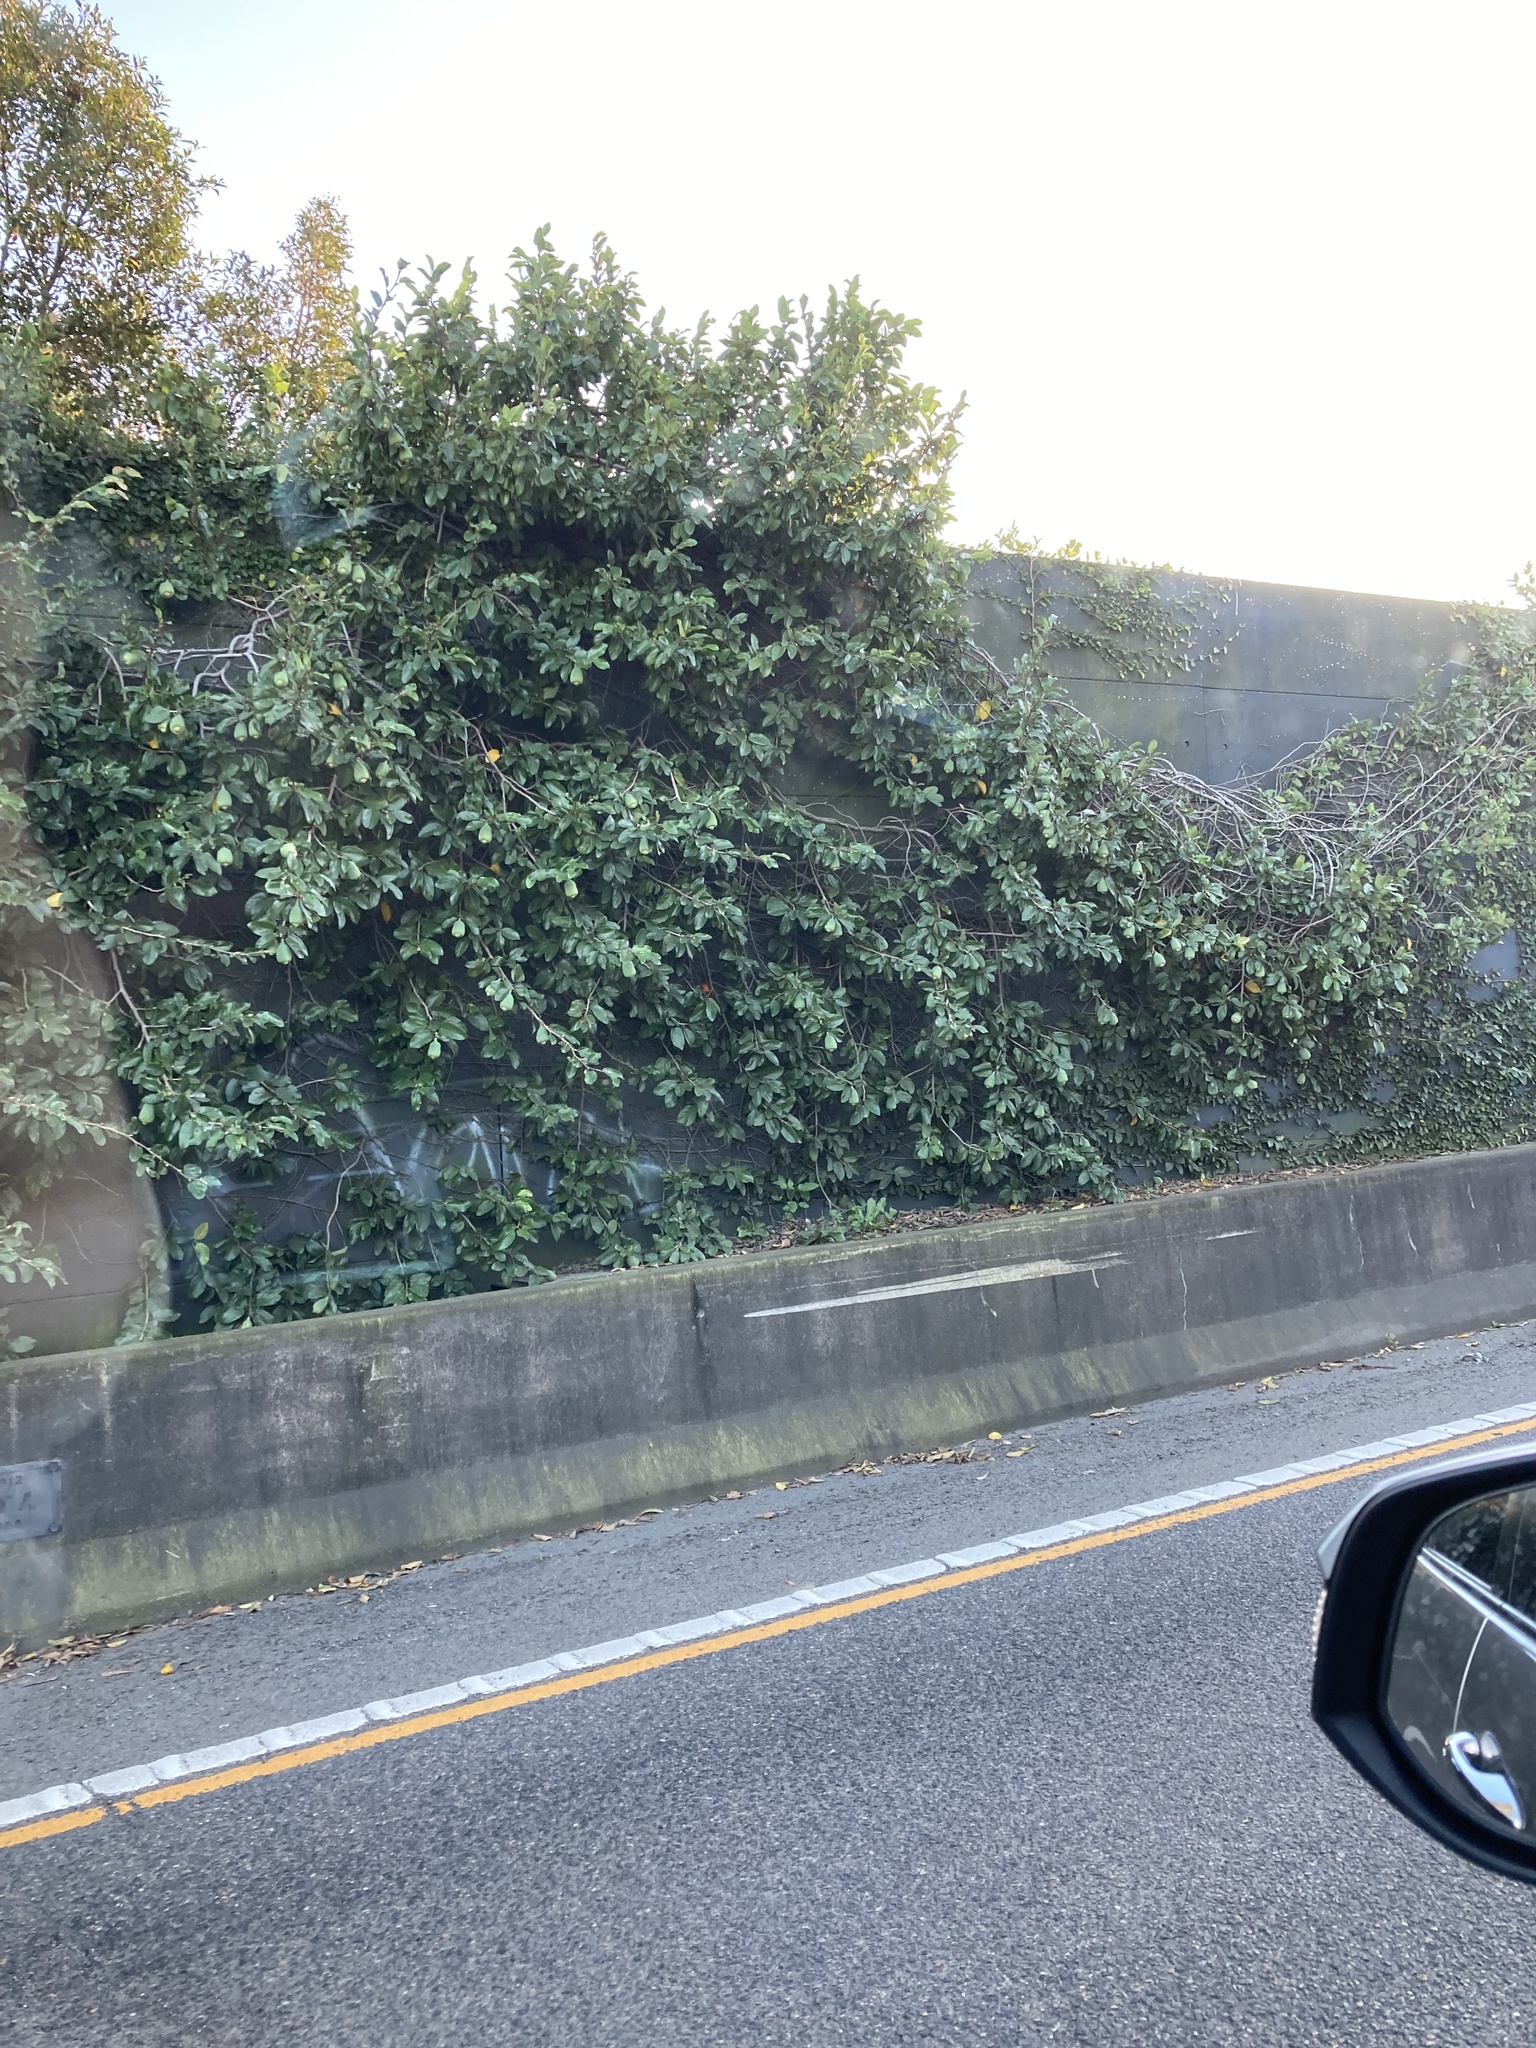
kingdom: Plantae
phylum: Tracheophyta
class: Magnoliopsida
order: Rosales
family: Moraceae
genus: Ficus
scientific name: Ficus pumila
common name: Climbingfig
